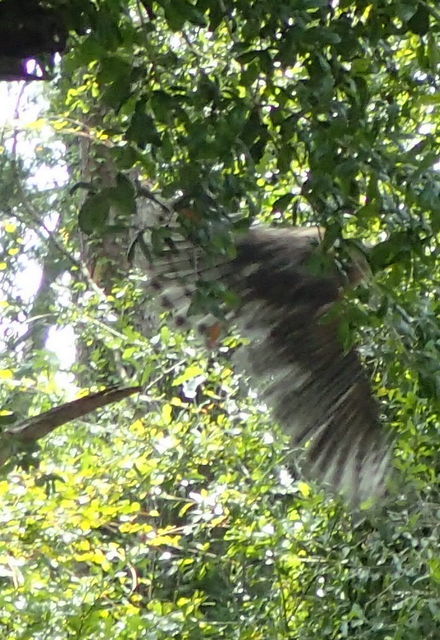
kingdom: Animalia
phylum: Chordata
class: Aves
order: Accipitriformes
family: Accipitridae
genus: Buteo
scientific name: Buteo lineatus
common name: Red-shouldered hawk
